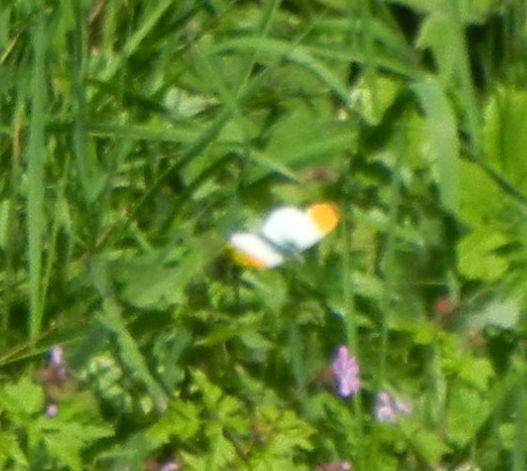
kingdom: Animalia
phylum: Arthropoda
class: Insecta
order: Lepidoptera
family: Pieridae
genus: Anthocharis
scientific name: Anthocharis cardamines
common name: Orange-tip
